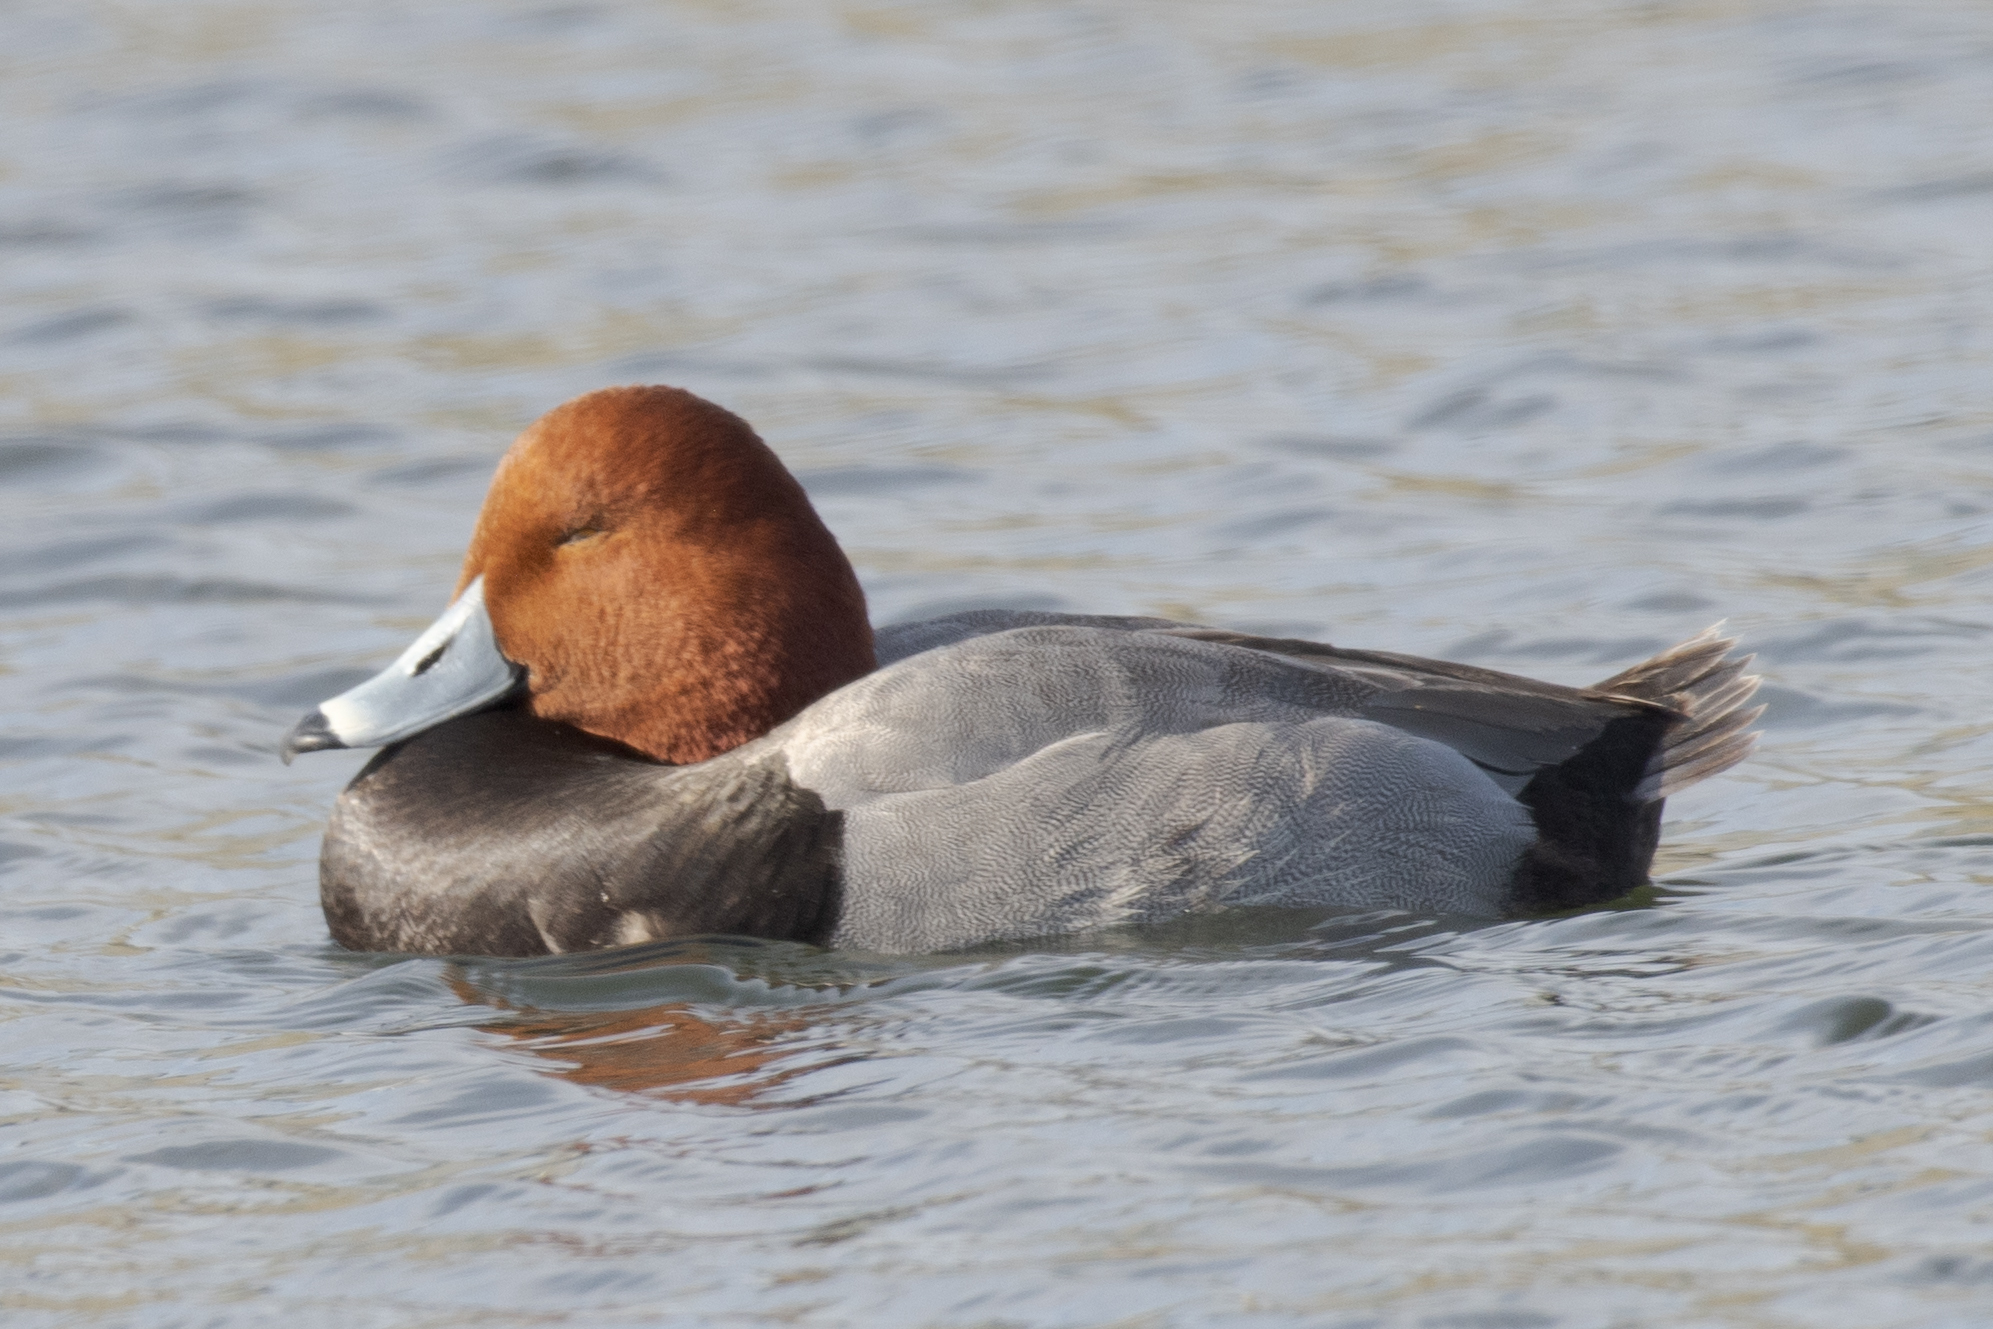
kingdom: Animalia
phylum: Chordata
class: Aves
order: Anseriformes
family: Anatidae
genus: Aythya
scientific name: Aythya americana
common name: Redhead
